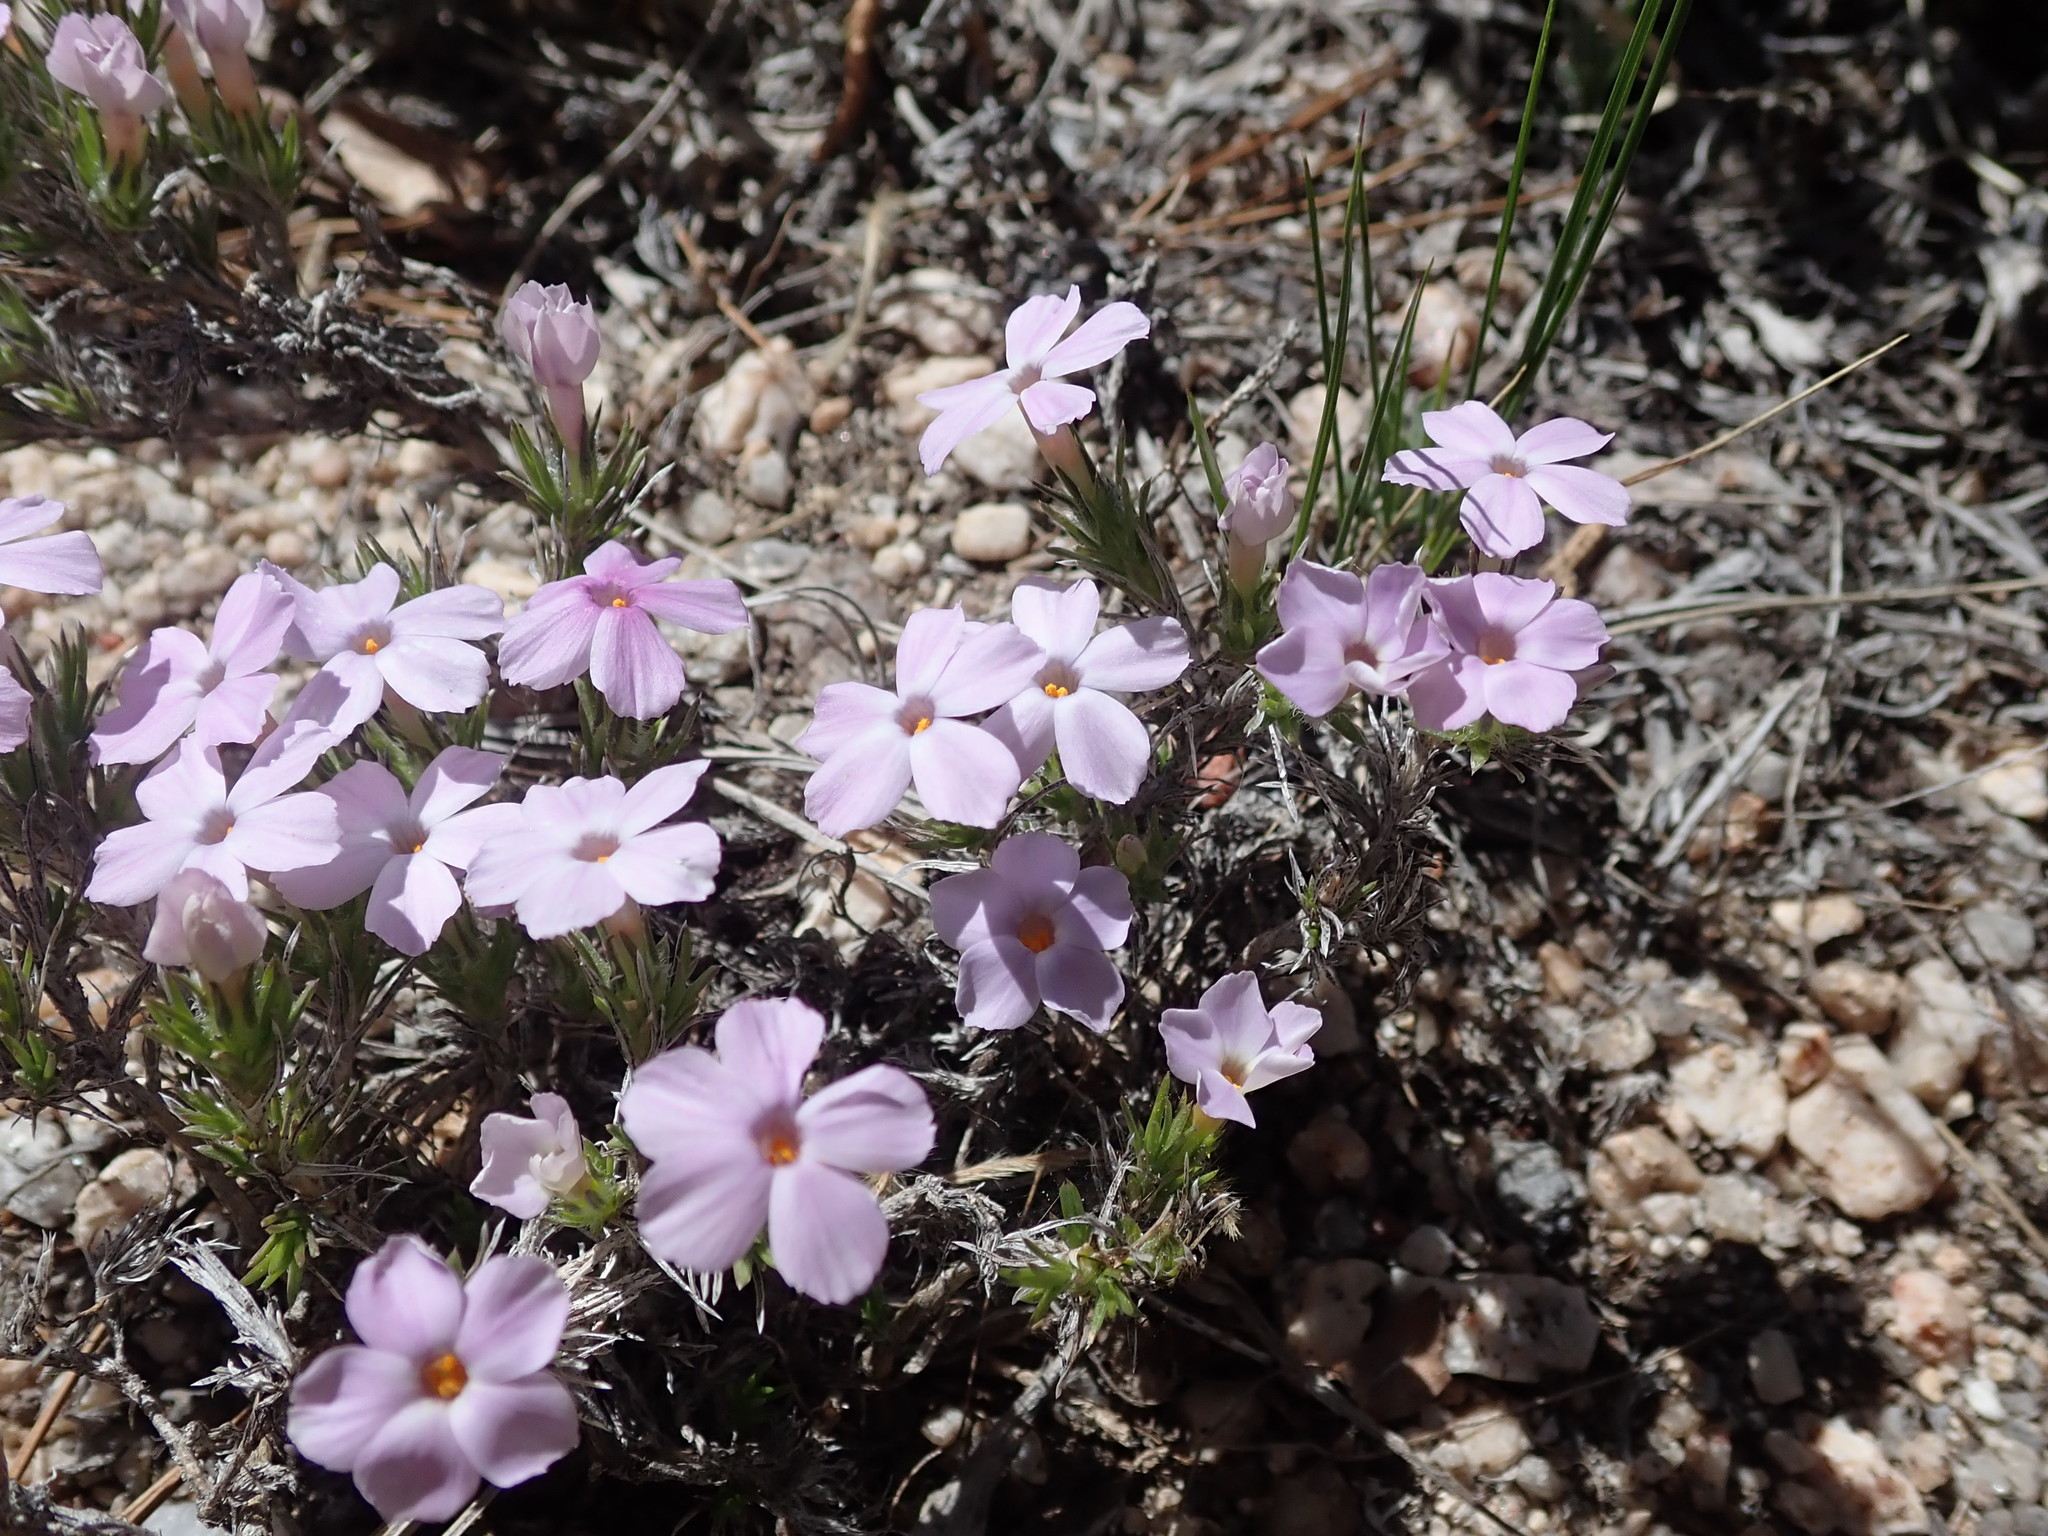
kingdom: Plantae
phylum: Tracheophyta
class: Magnoliopsida
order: Ericales
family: Polemoniaceae
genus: Phlox
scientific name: Phlox diffusa
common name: Mat phlox
